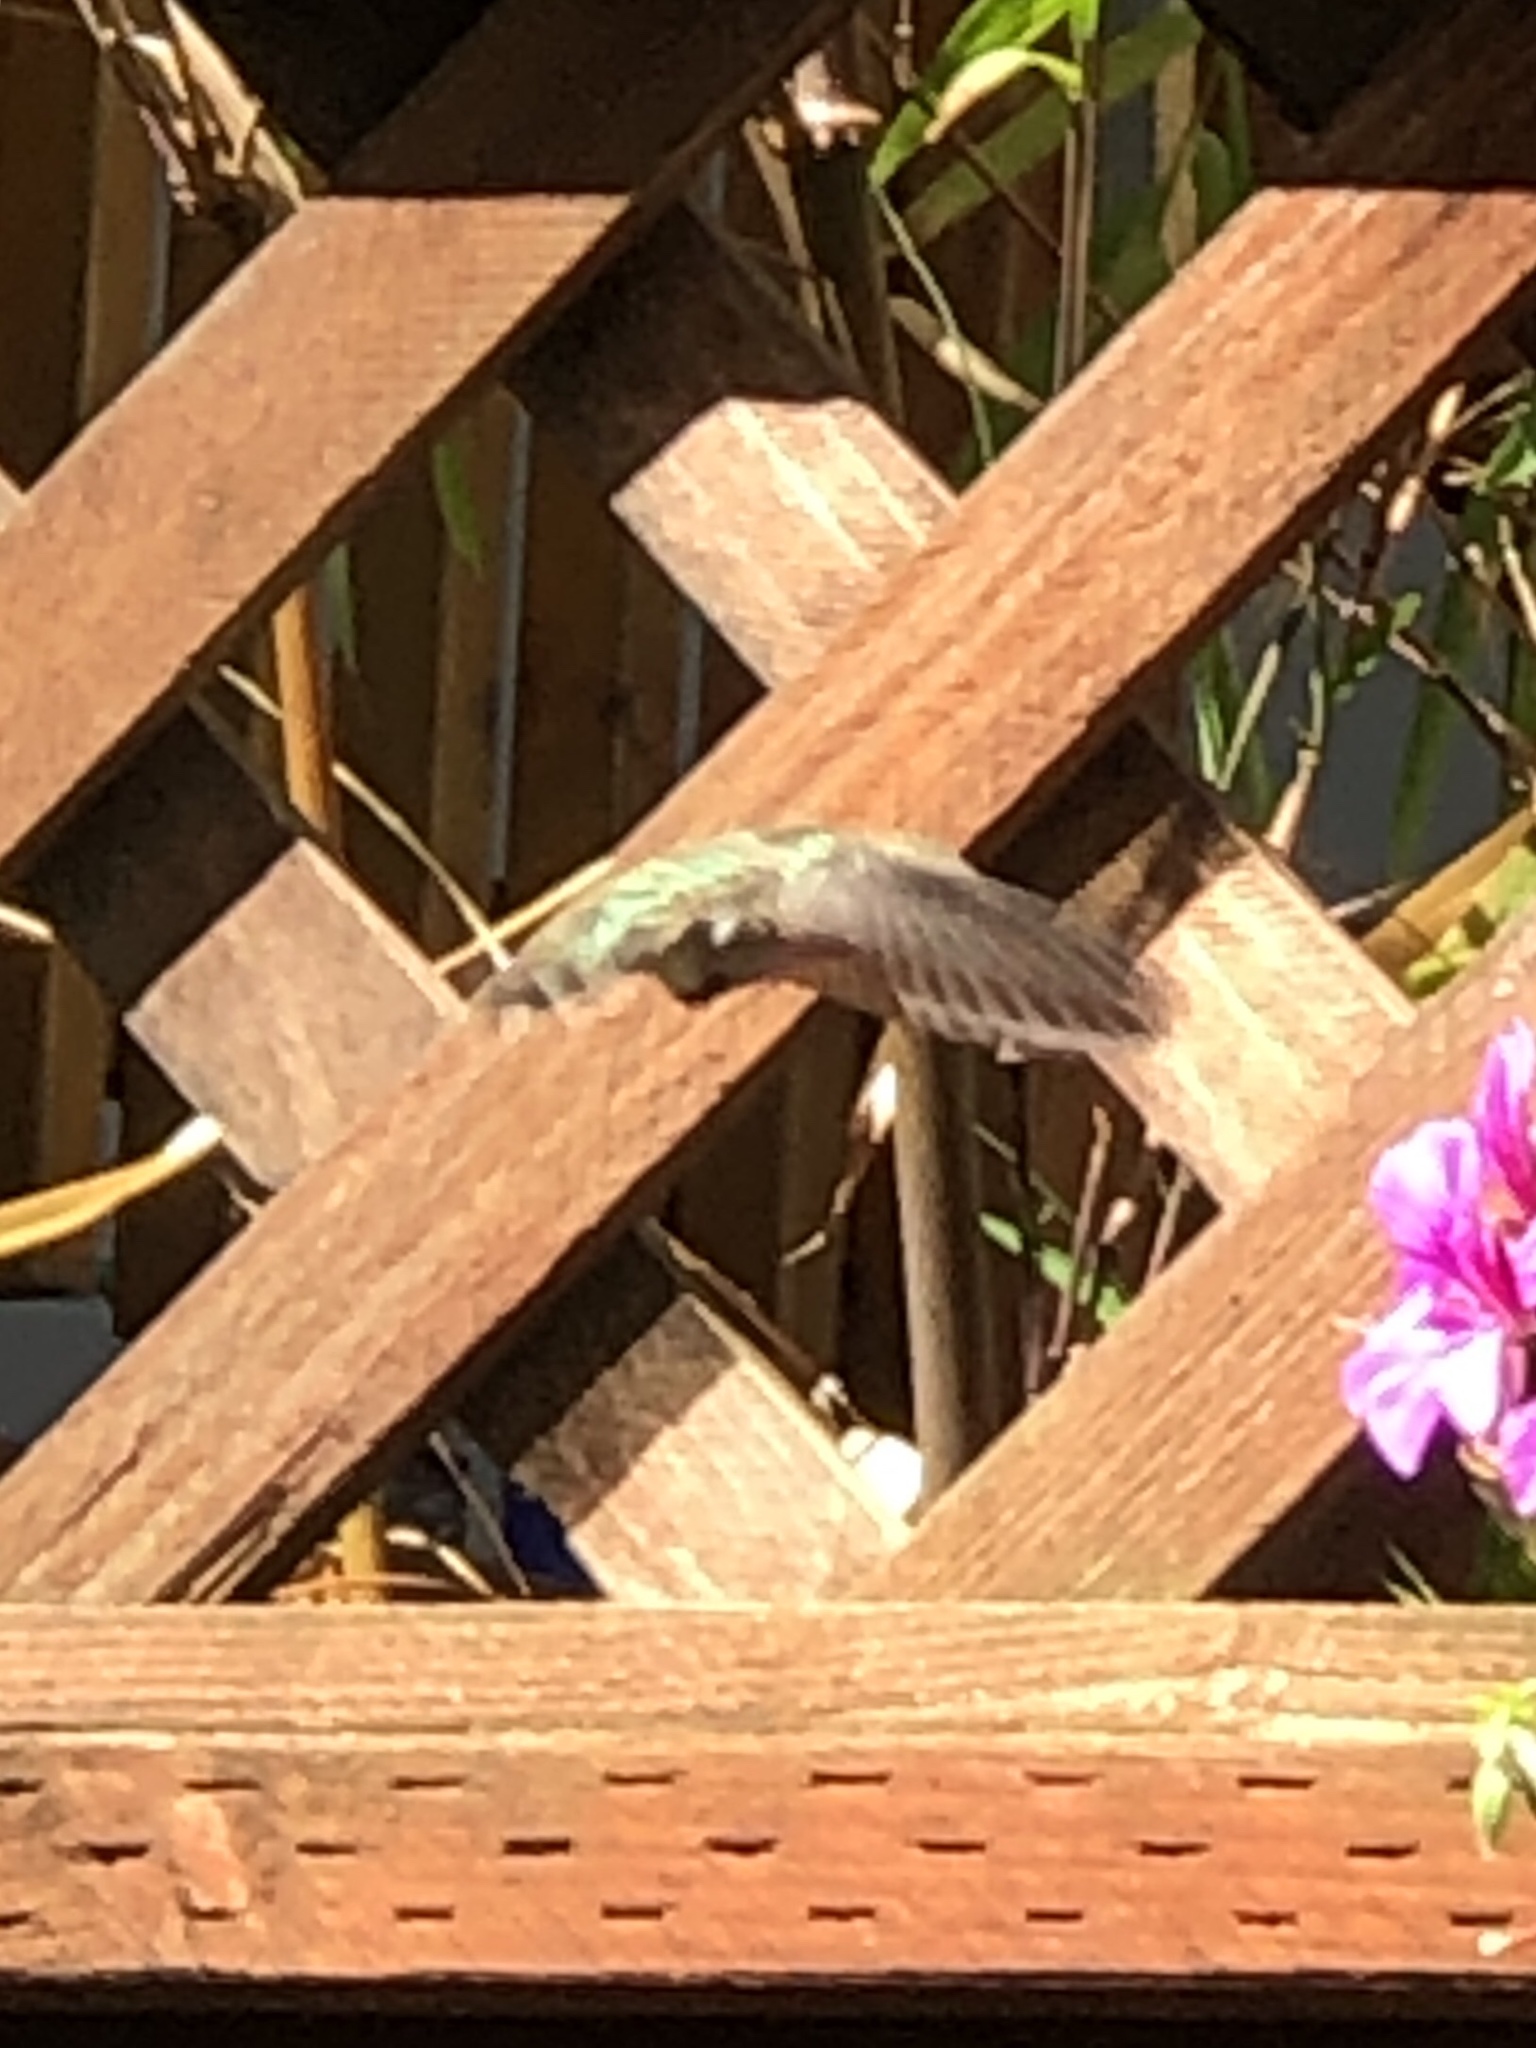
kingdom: Animalia
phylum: Chordata
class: Aves
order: Apodiformes
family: Trochilidae
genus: Archilochus
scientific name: Archilochus alexandri
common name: Black-chinned hummingbird
